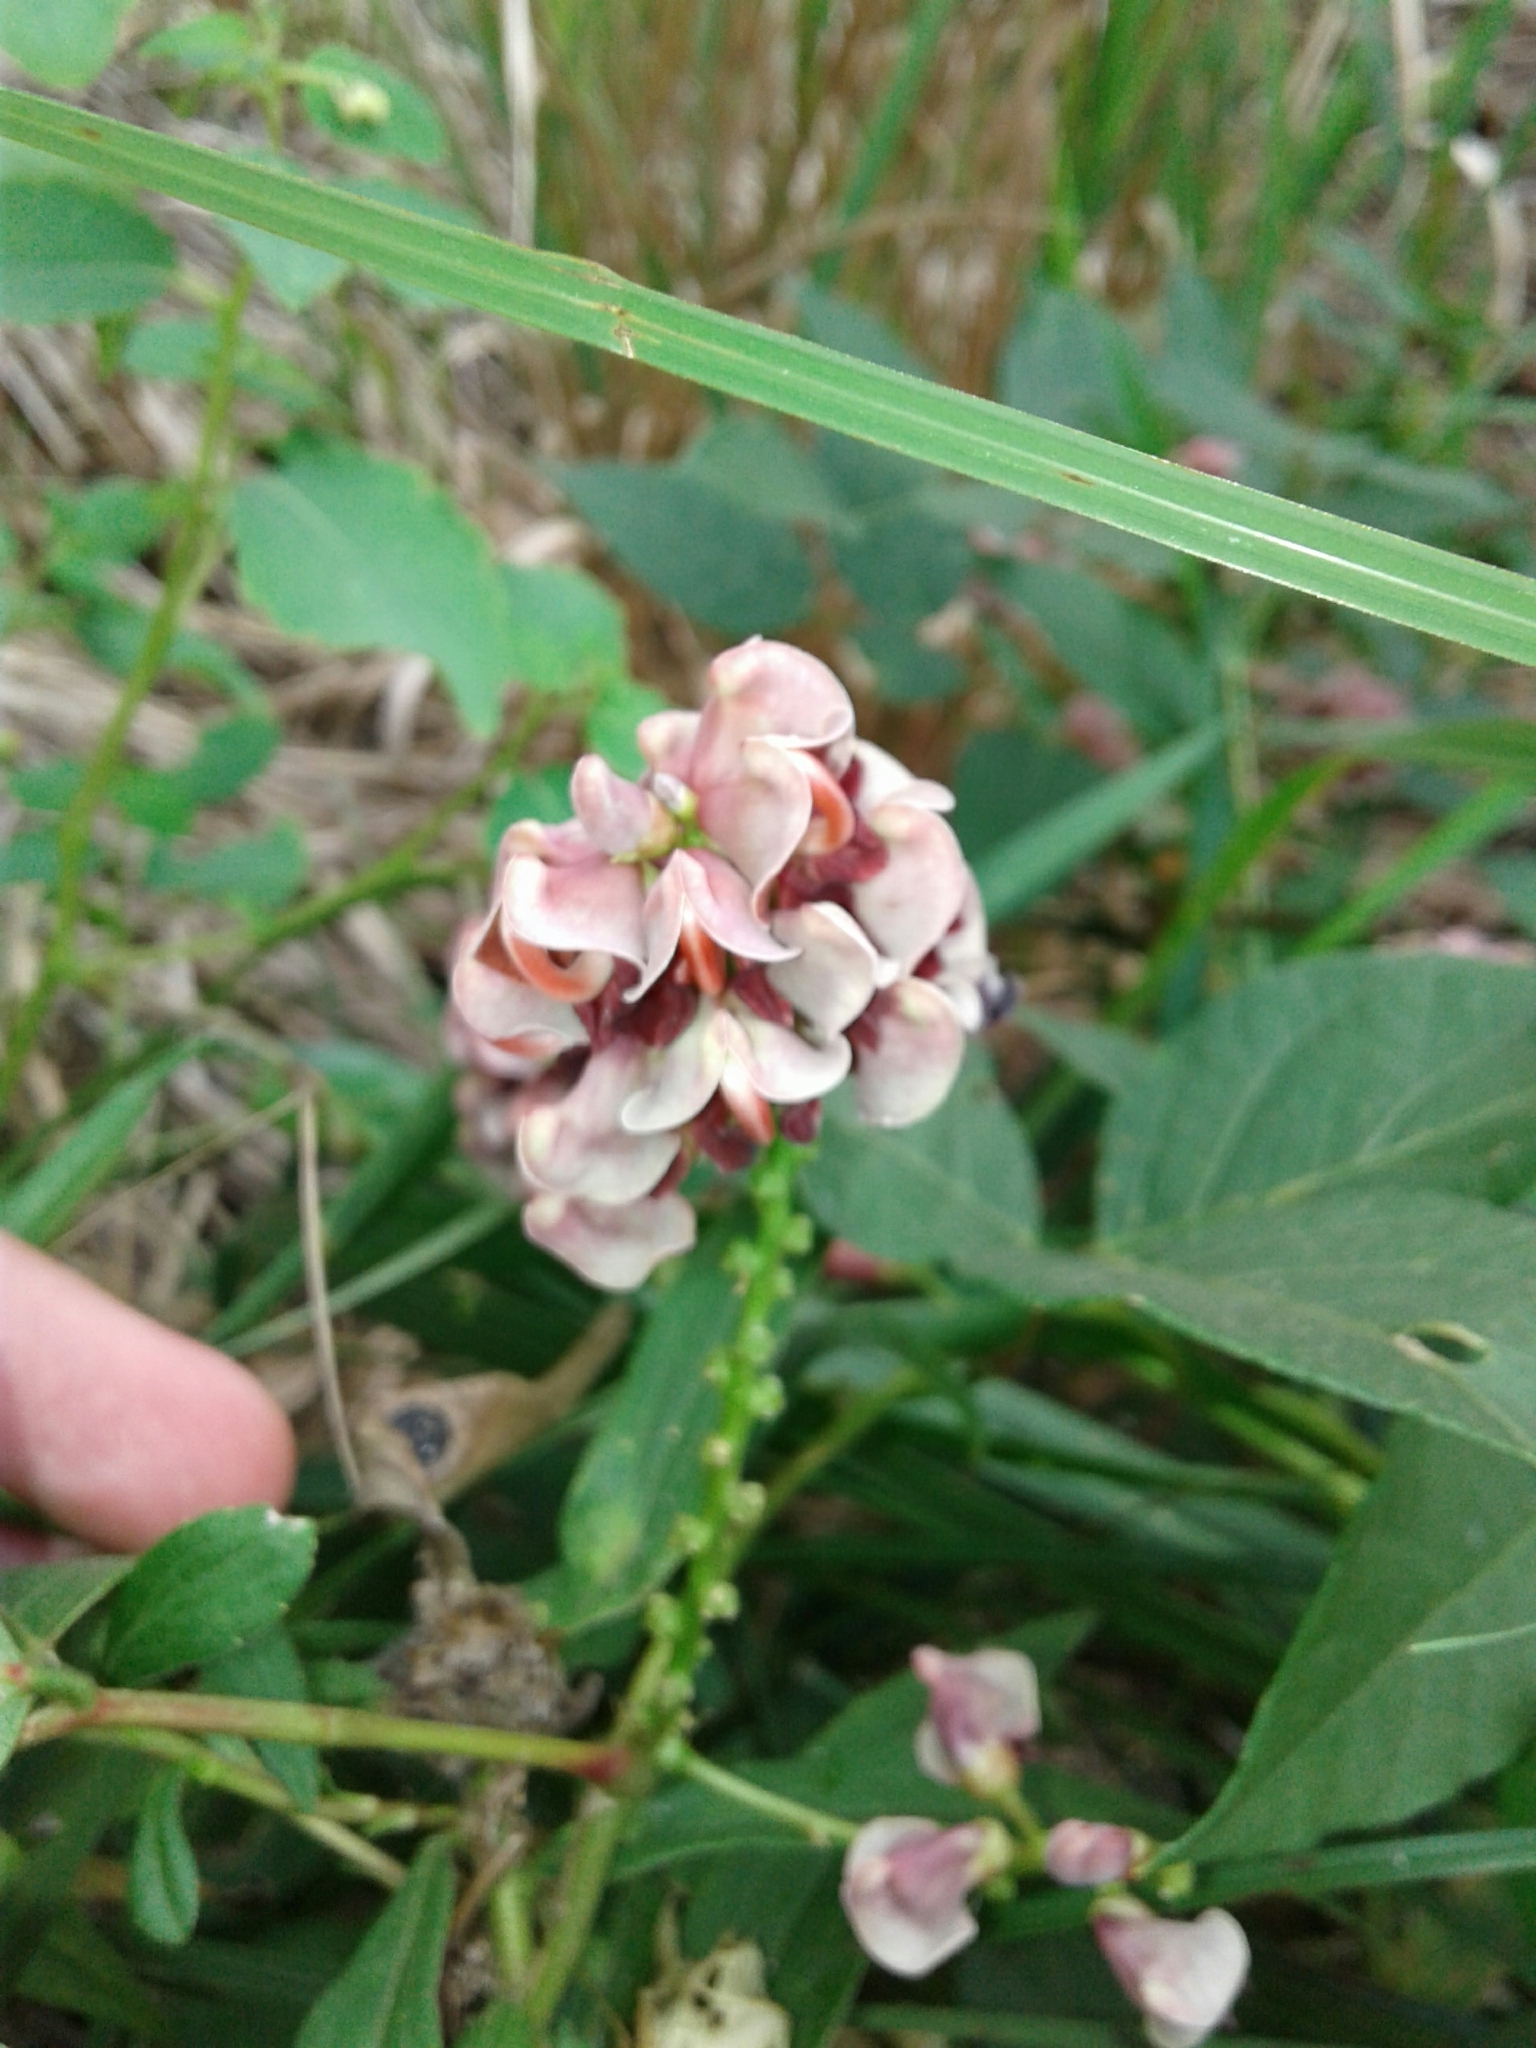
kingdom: Plantae
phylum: Tracheophyta
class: Magnoliopsida
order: Fabales
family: Fabaceae
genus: Apios
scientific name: Apios americana
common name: American potato-bean
